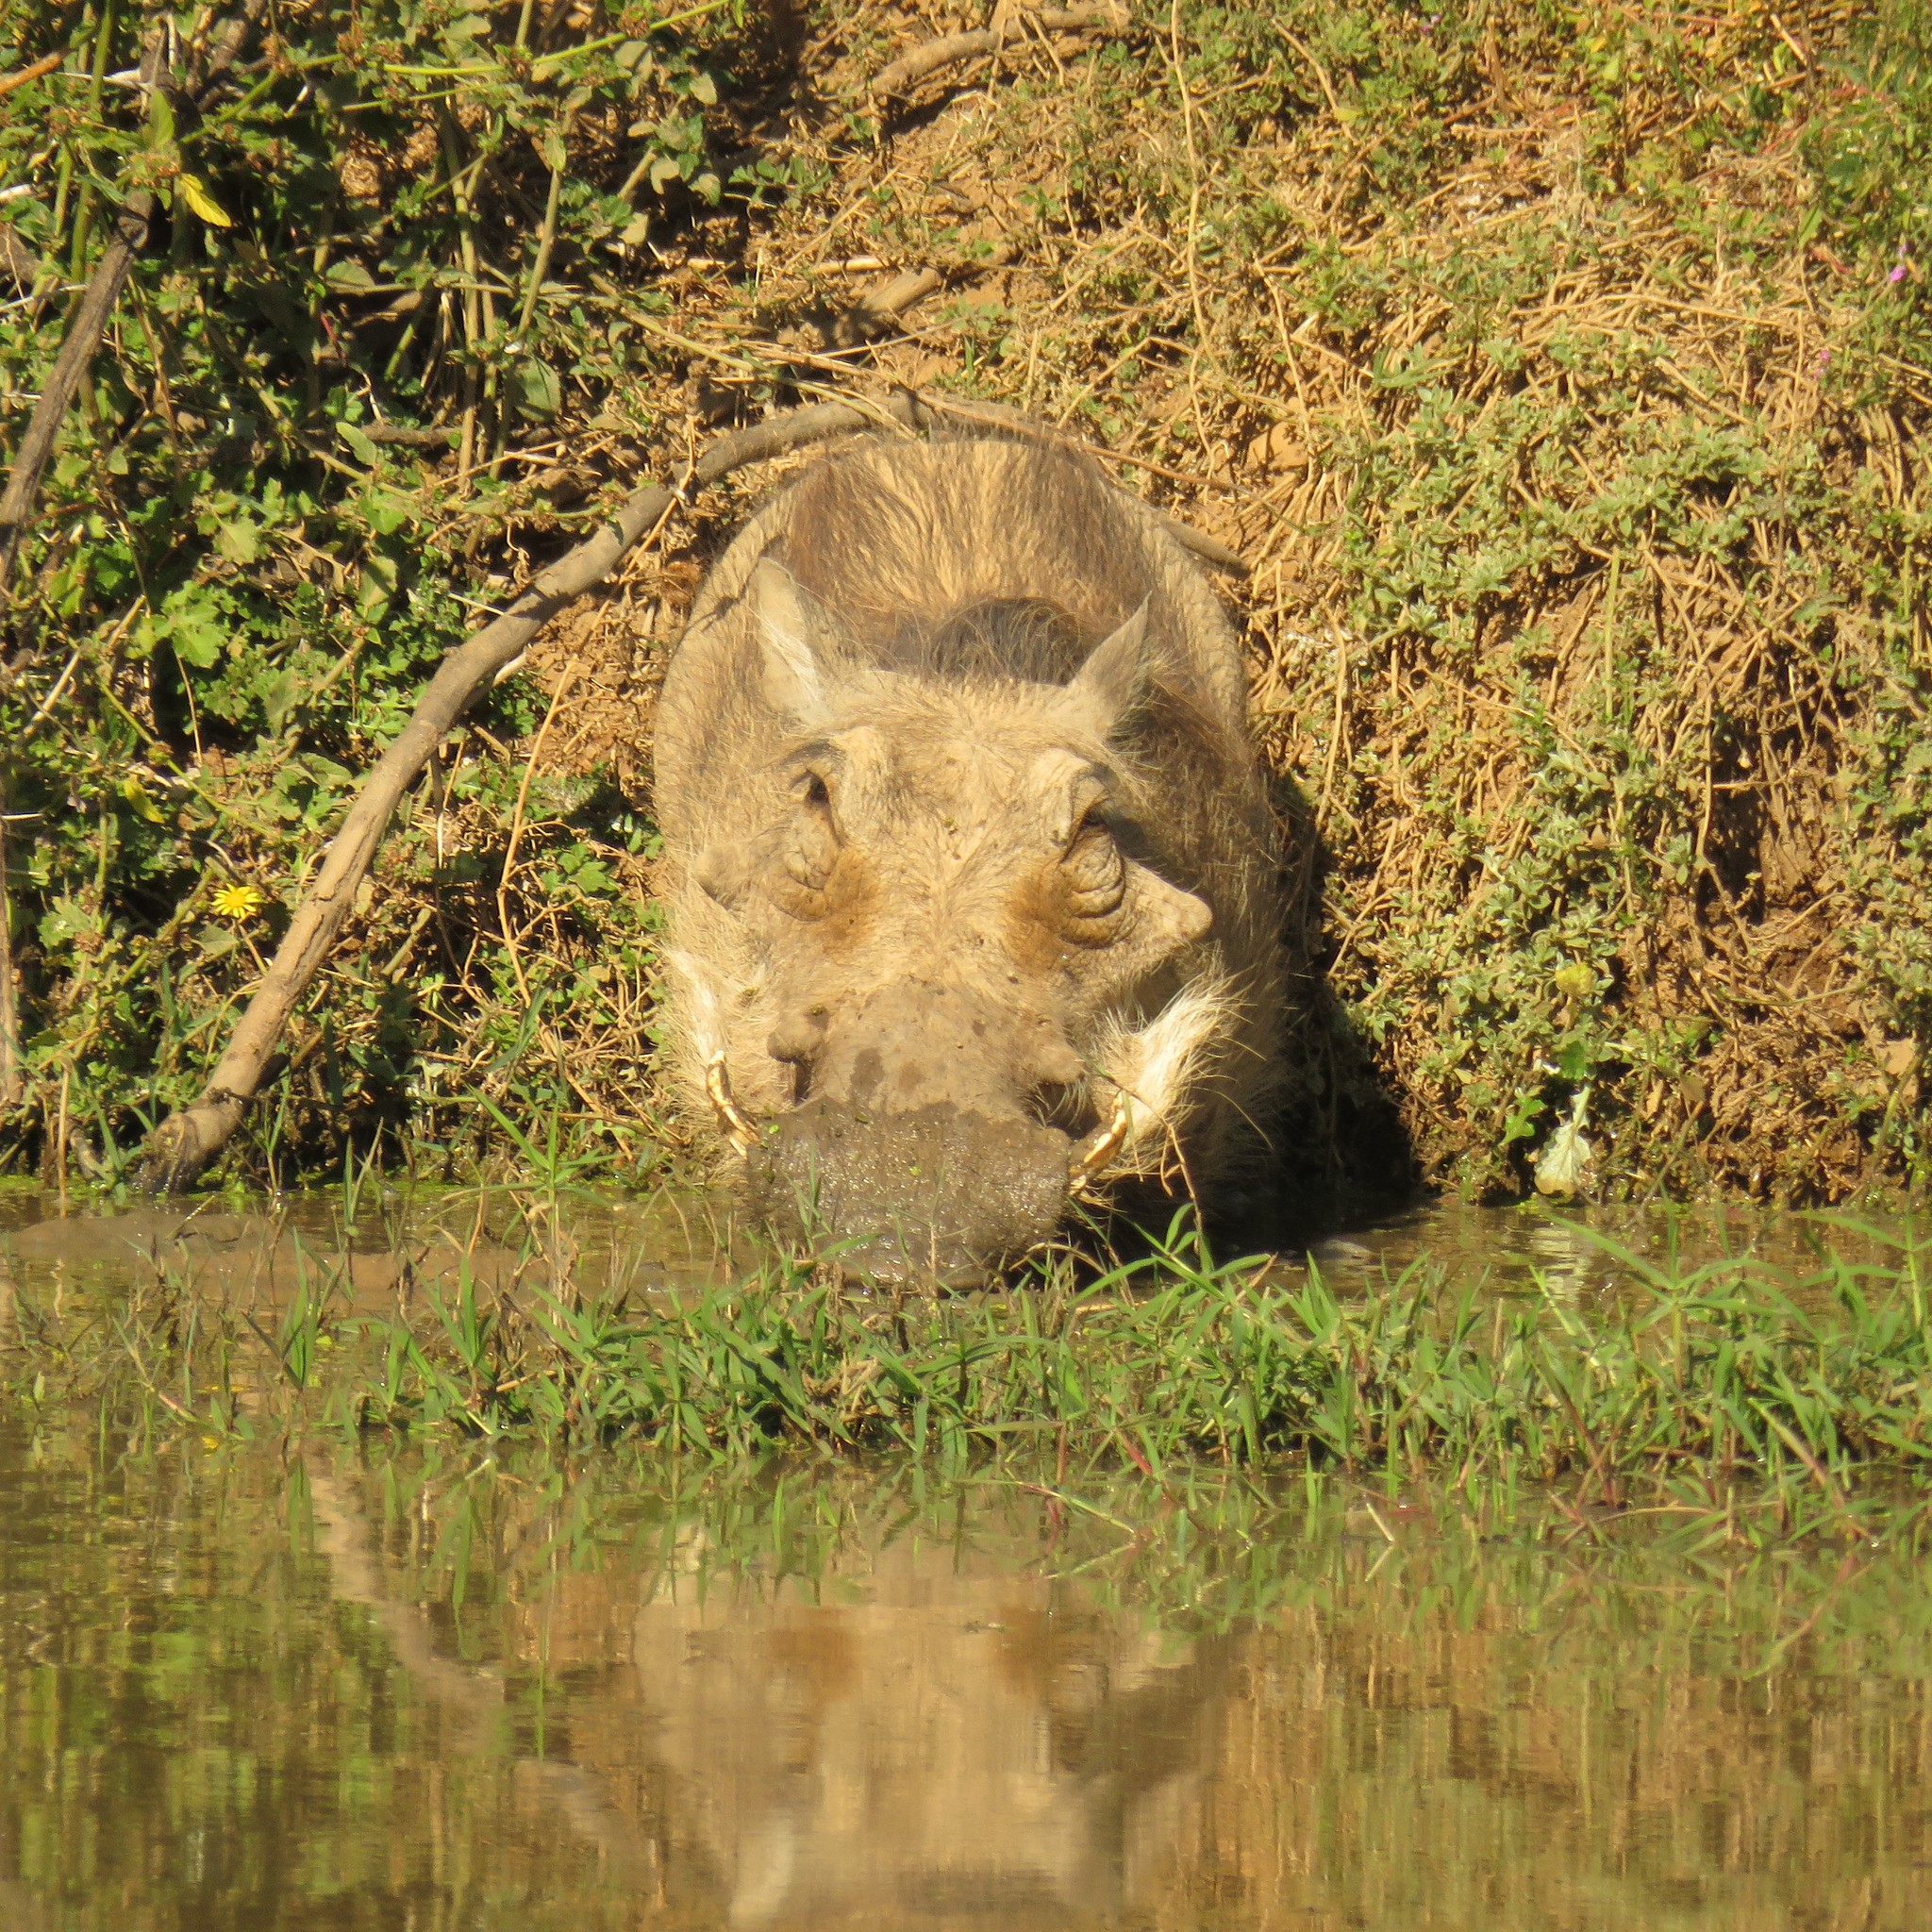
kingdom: Animalia
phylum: Chordata
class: Mammalia
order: Artiodactyla
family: Suidae
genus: Phacochoerus
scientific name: Phacochoerus africanus
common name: Common warthog
